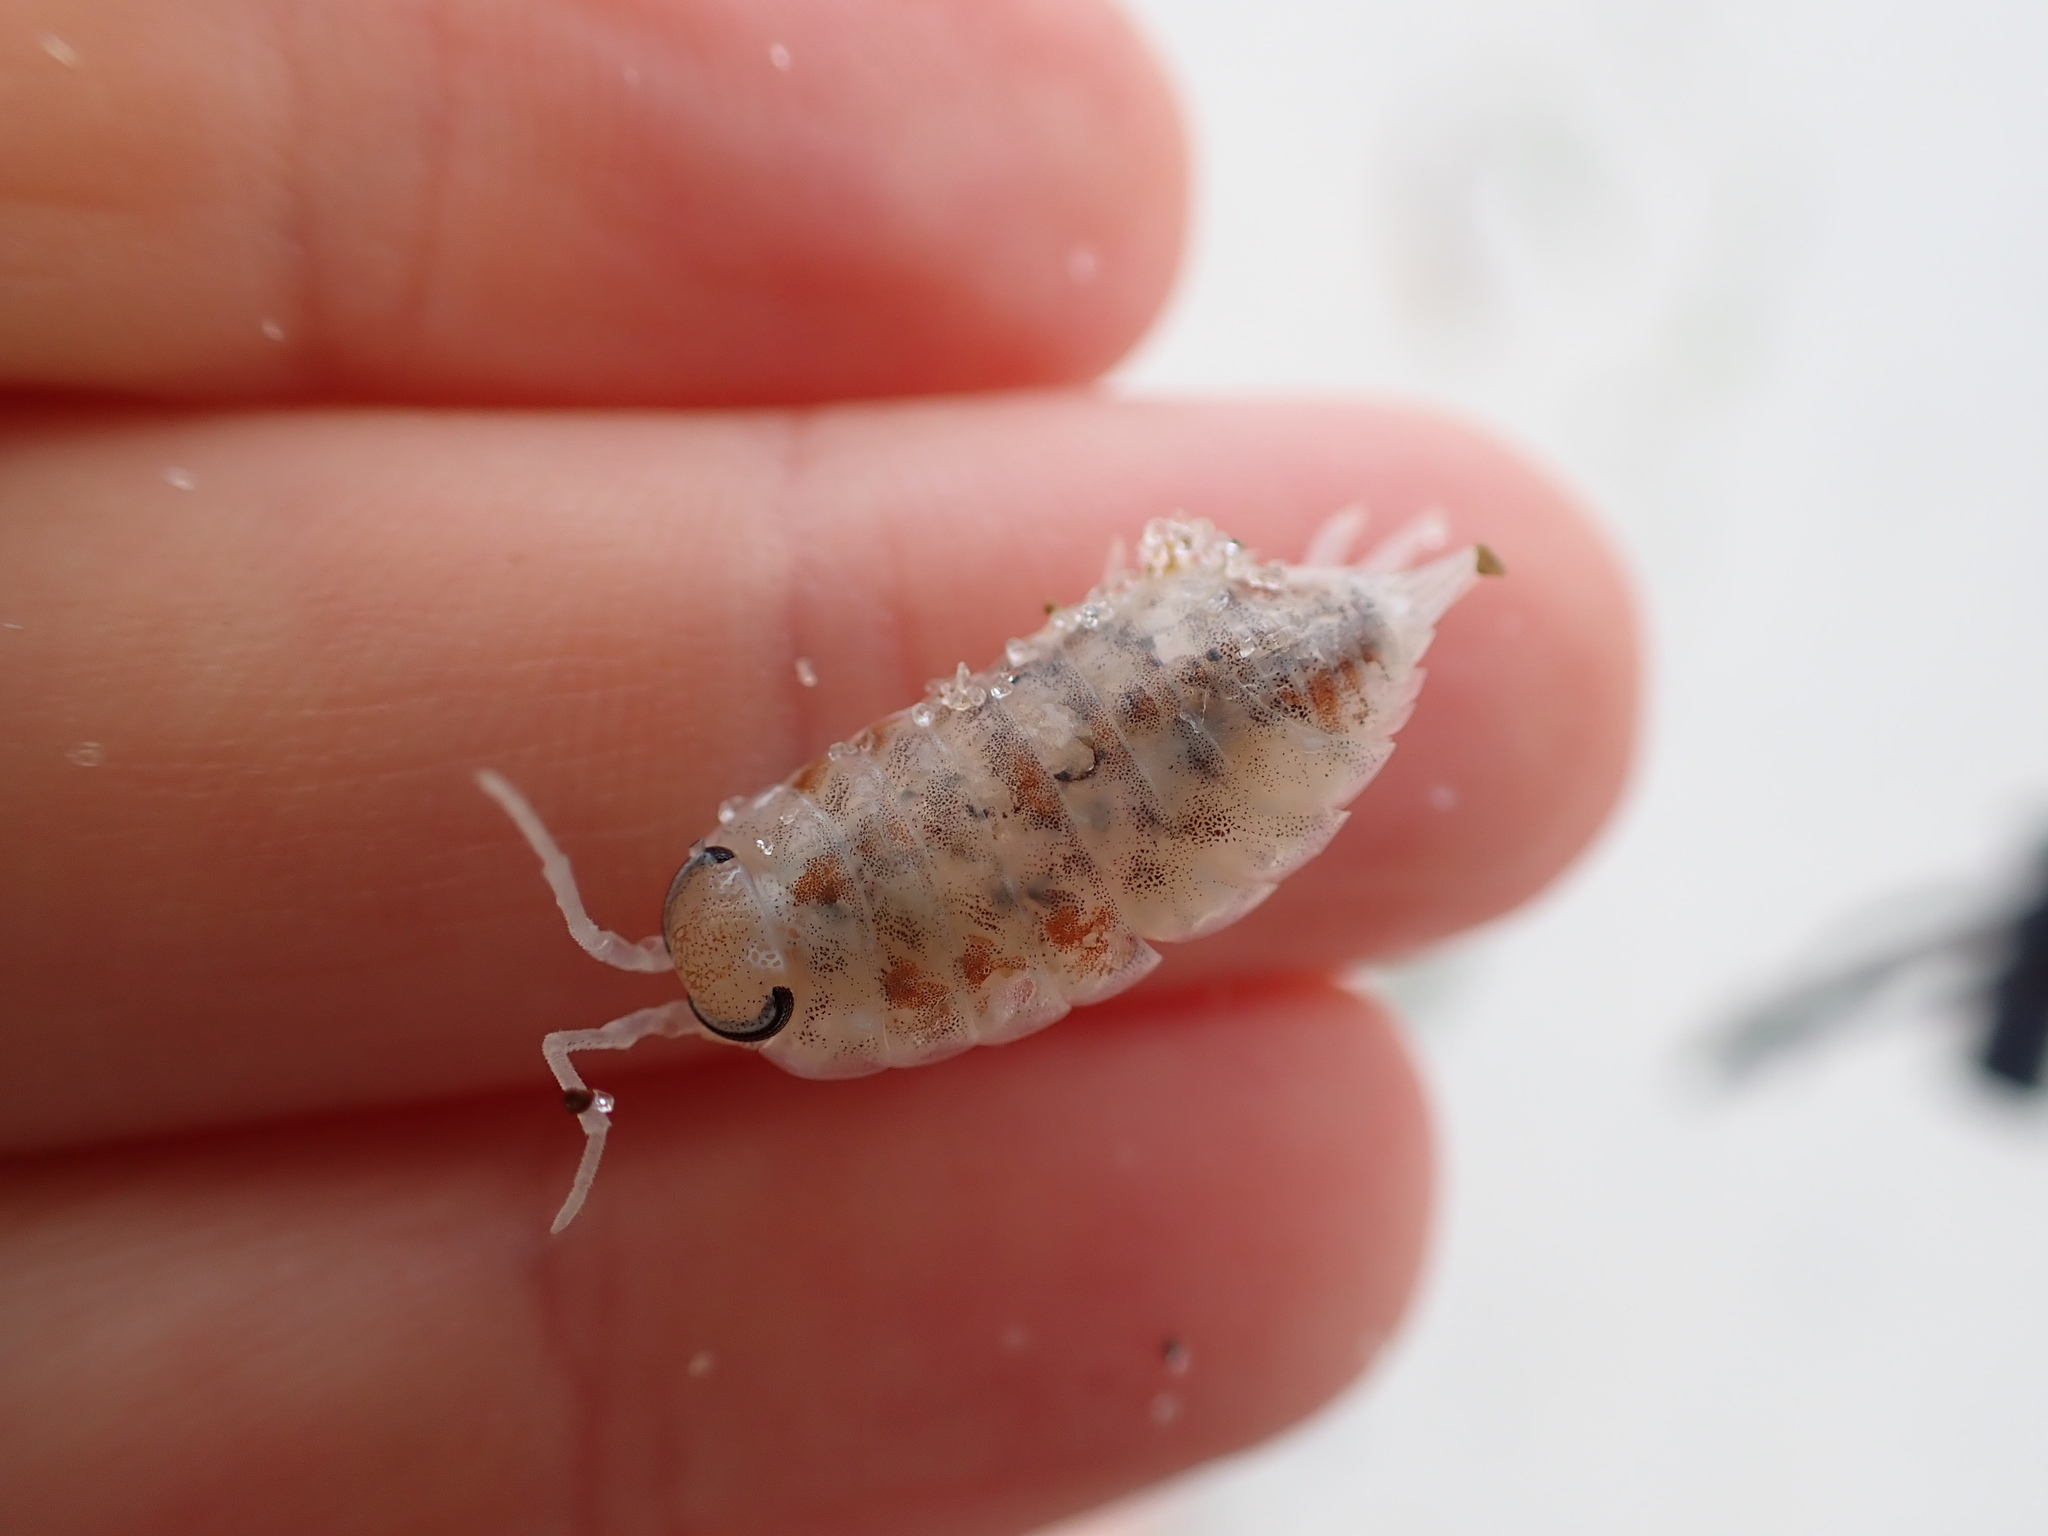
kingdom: Animalia
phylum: Arthropoda
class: Malacostraca
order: Isopoda
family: Scyphacidae
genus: Scyphax
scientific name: Scyphax ornatus
